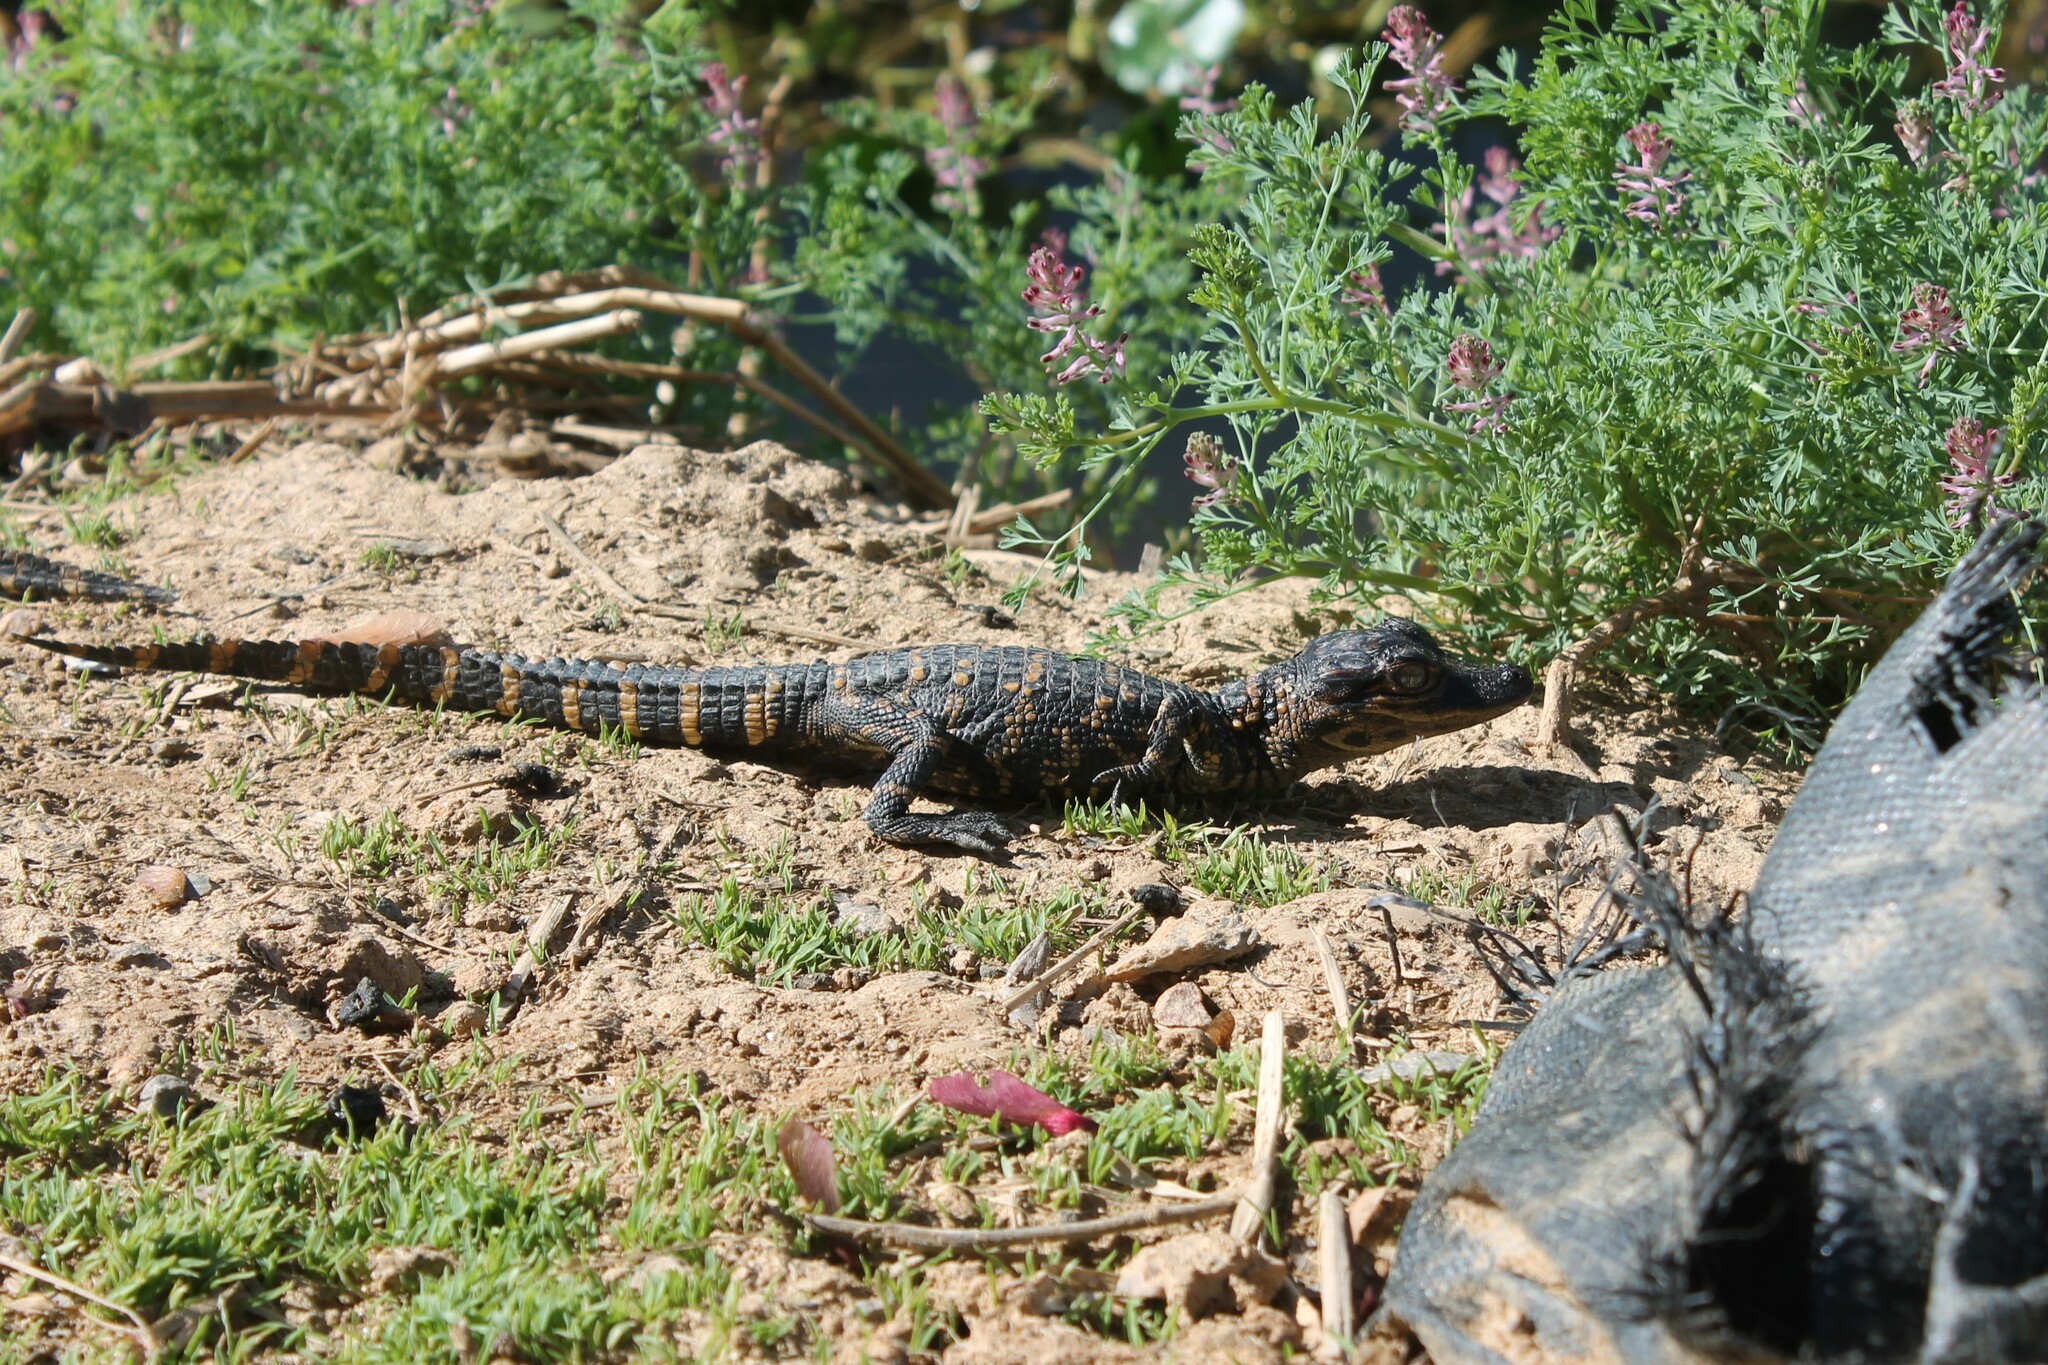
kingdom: Animalia
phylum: Chordata
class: Crocodylia
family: Alligatoridae
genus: Alligator
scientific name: Alligator mississippiensis
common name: American alligator
